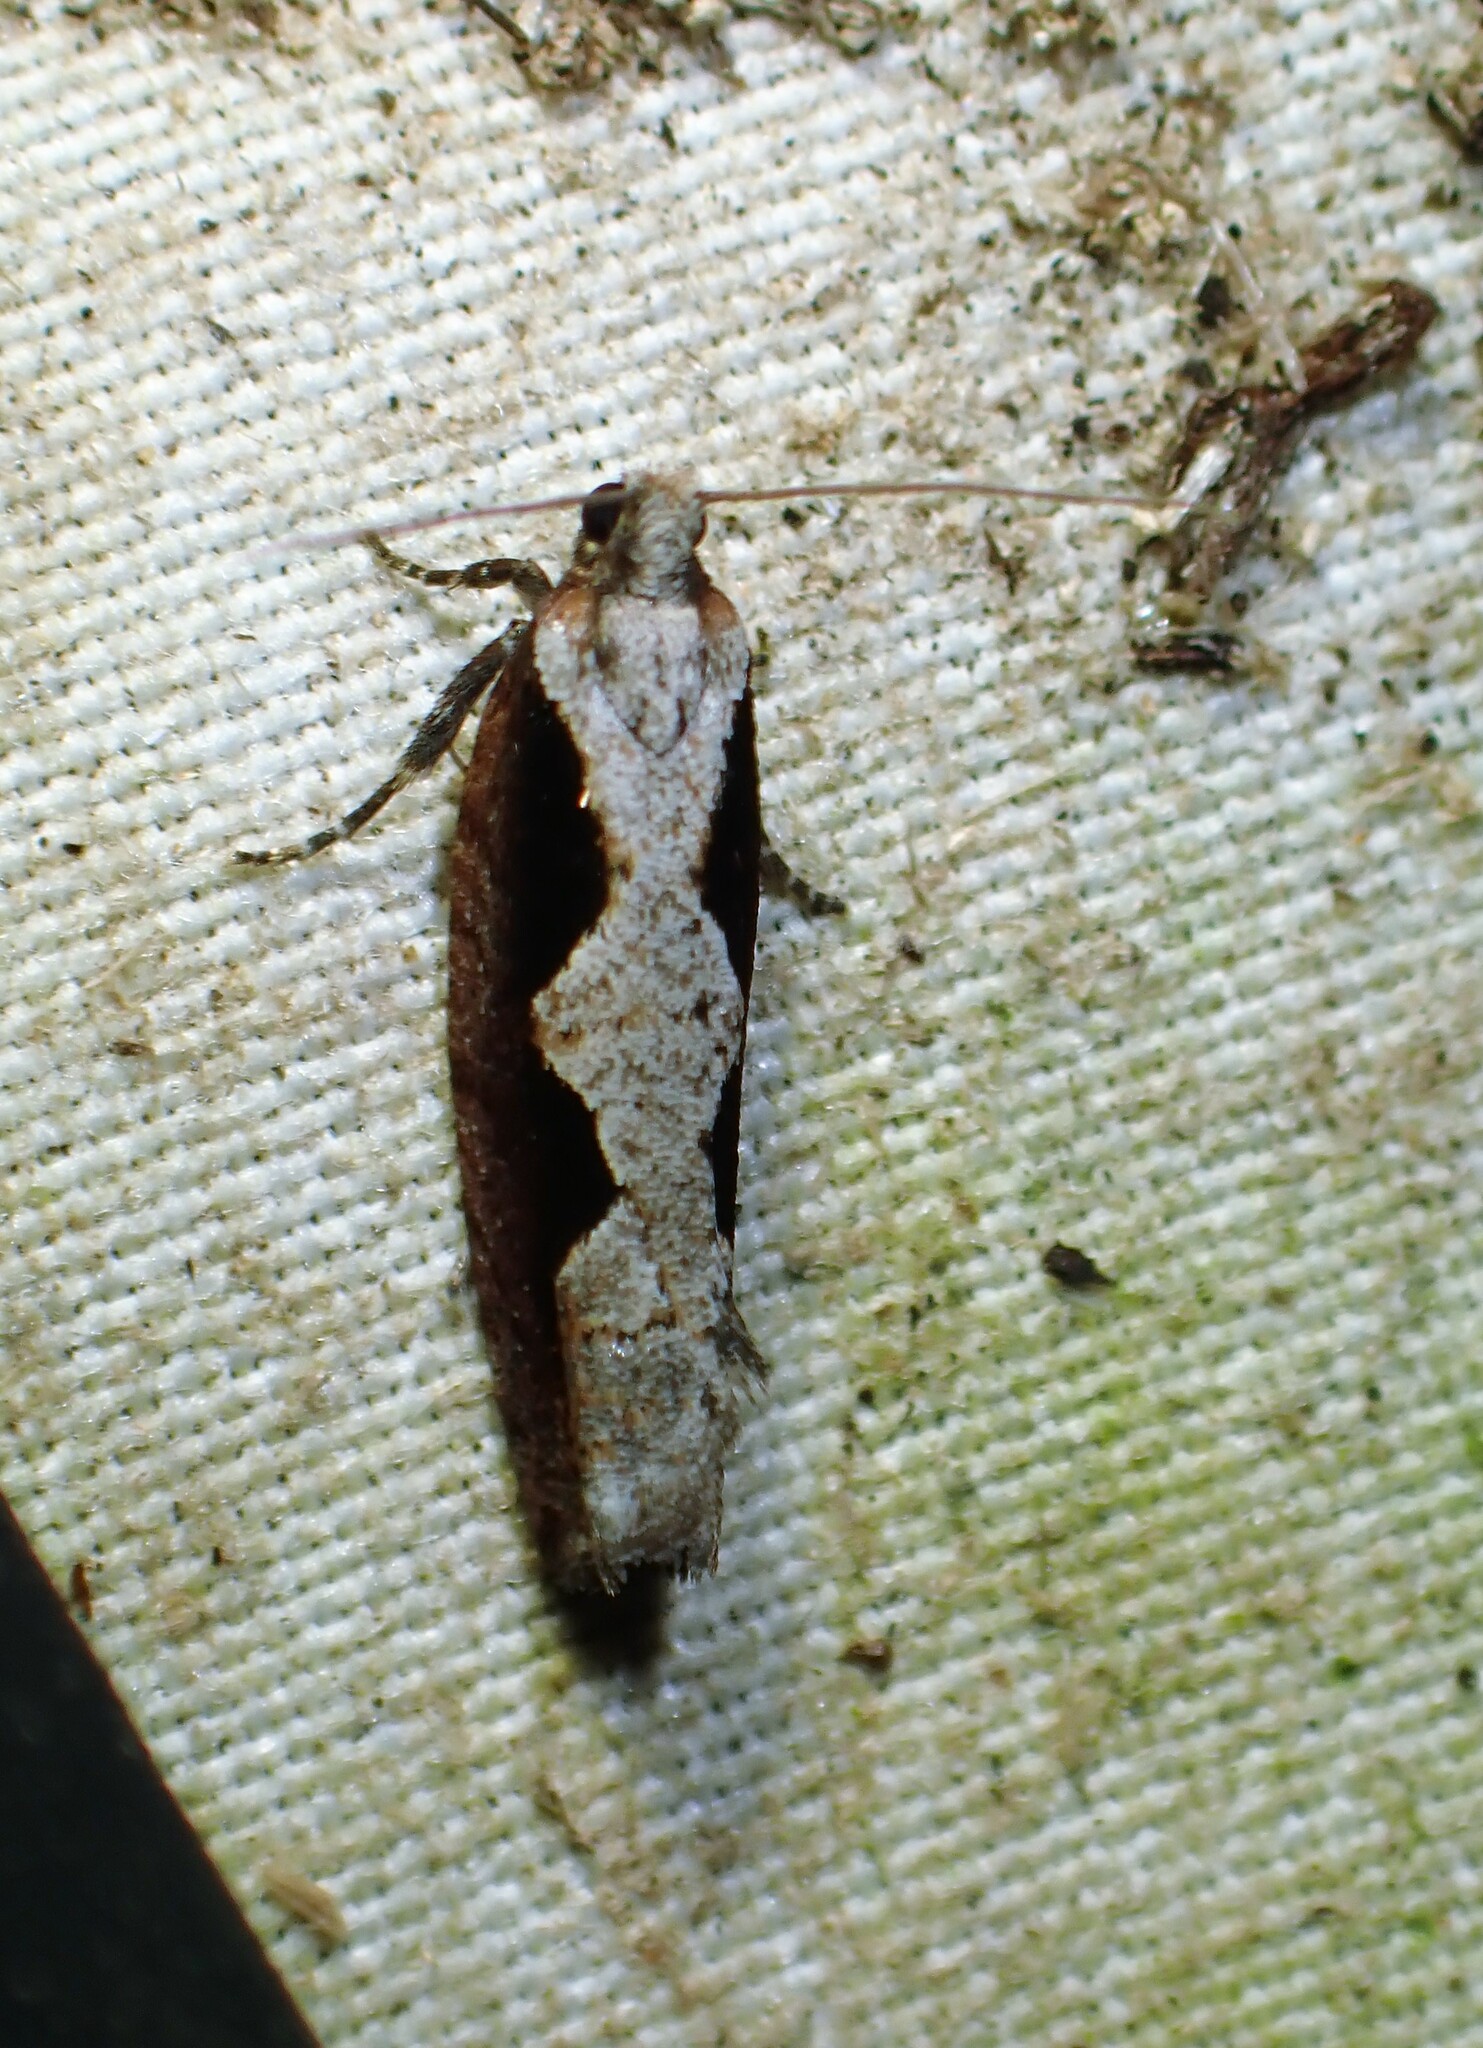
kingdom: Animalia
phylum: Arthropoda
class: Insecta
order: Lepidoptera
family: Tortricidae
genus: Epinotia
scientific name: Epinotia lindana
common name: Diamondback epinotia moth
